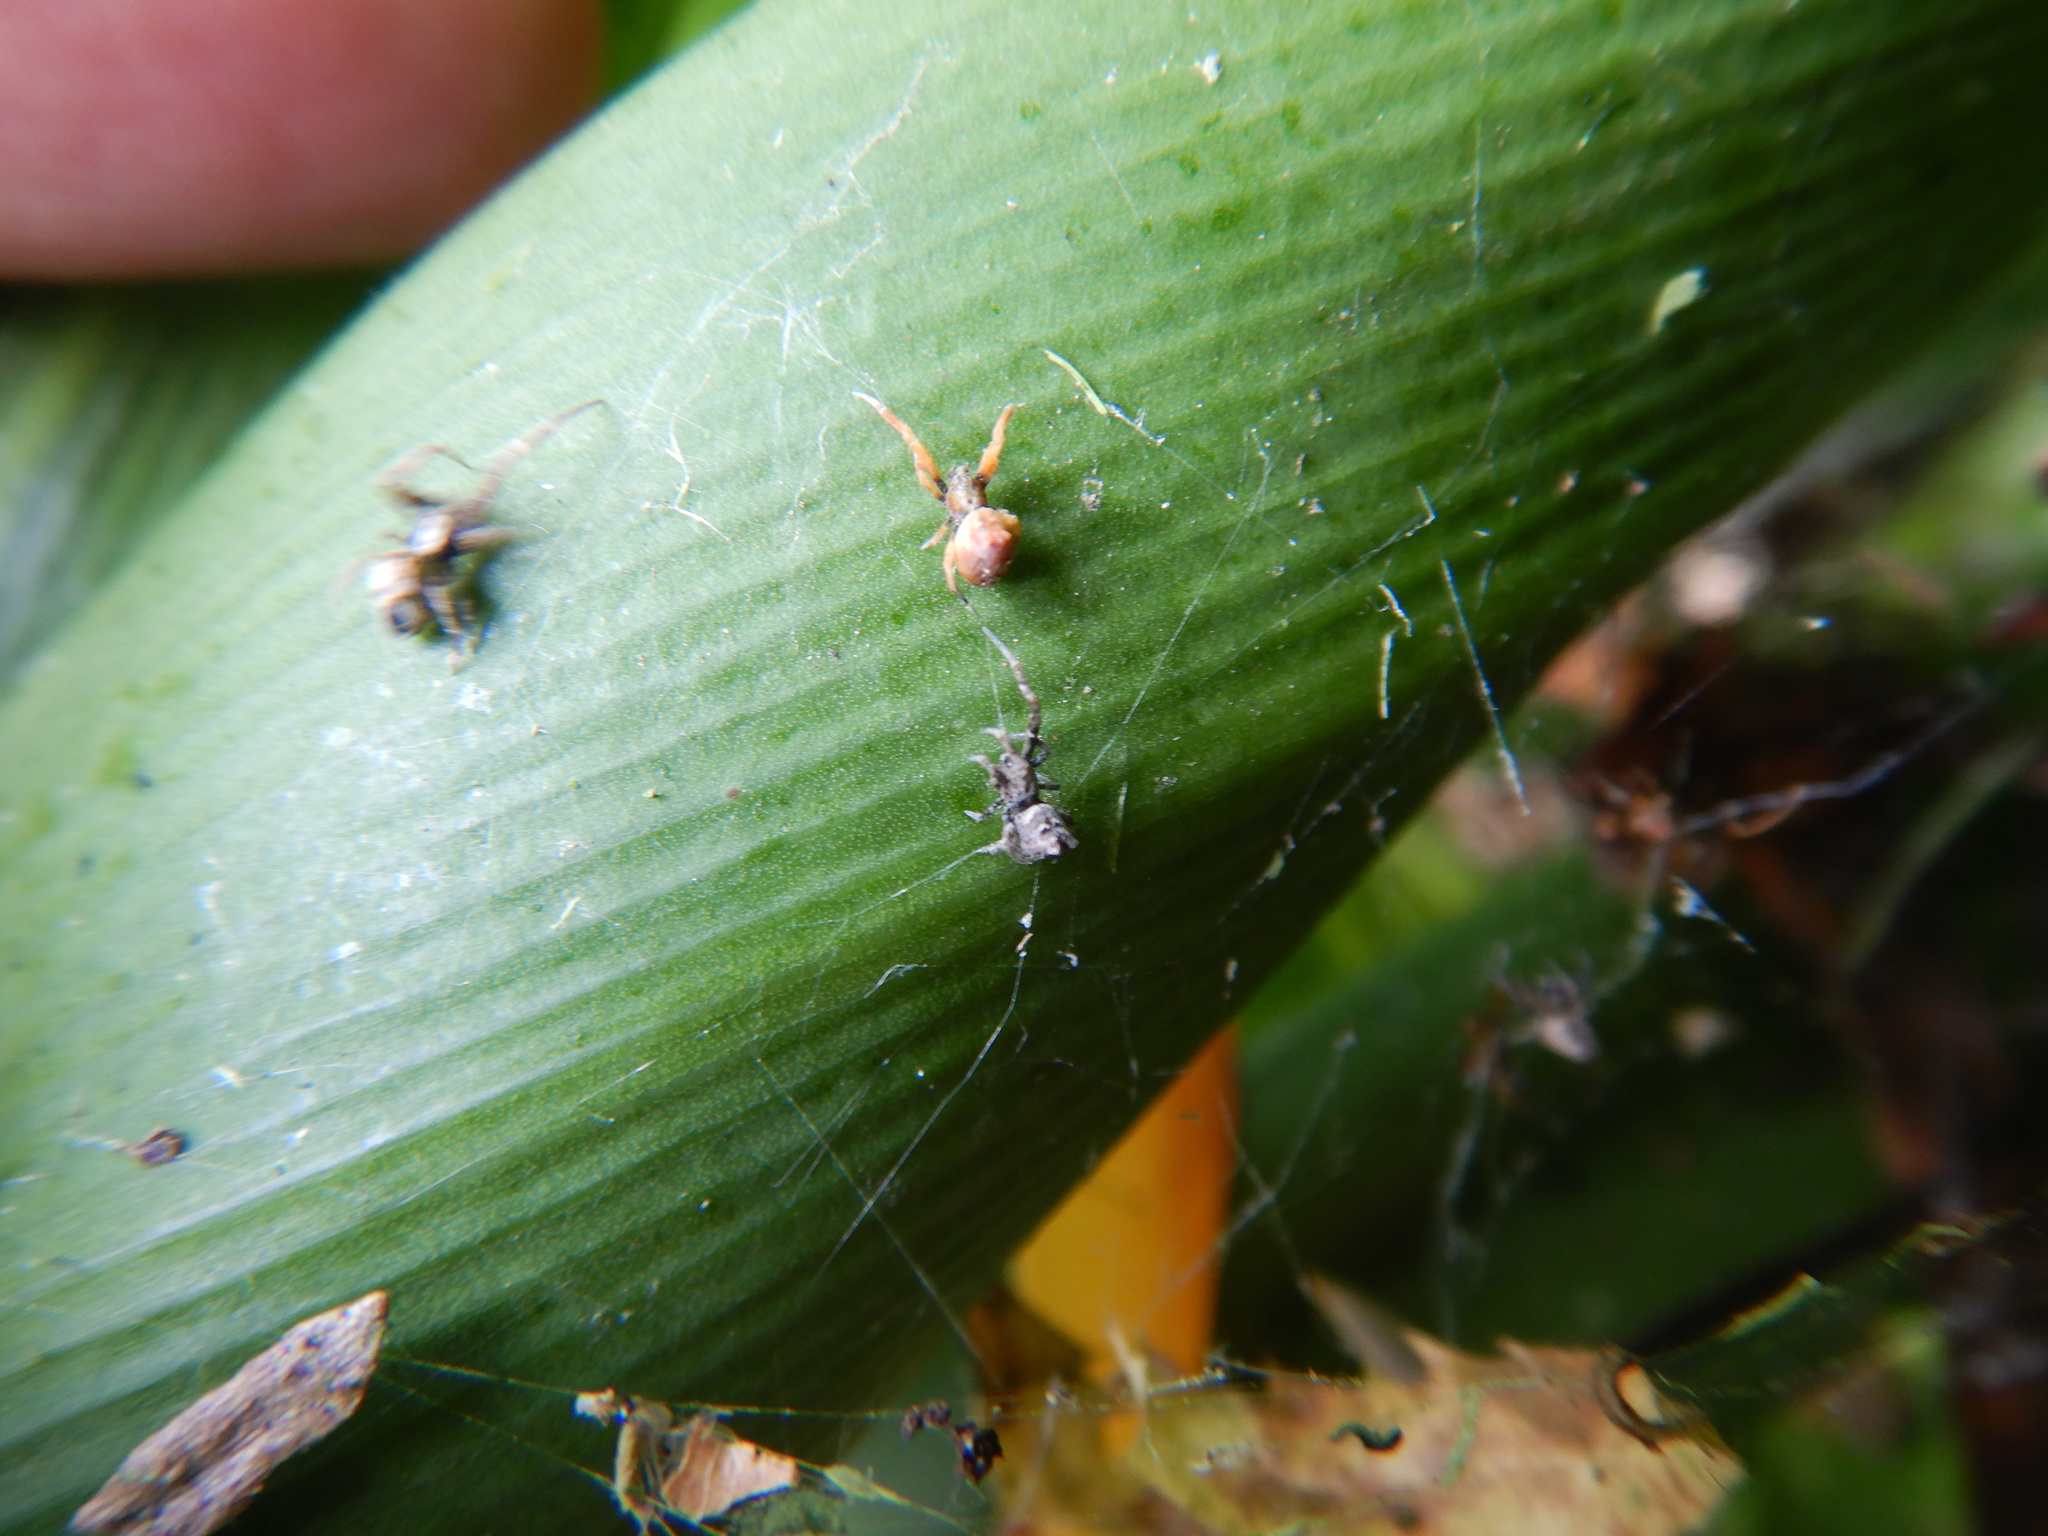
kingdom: Animalia
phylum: Arthropoda
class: Arachnida
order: Araneae
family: Uloboridae
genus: Philoponella
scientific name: Philoponella congregabilis
